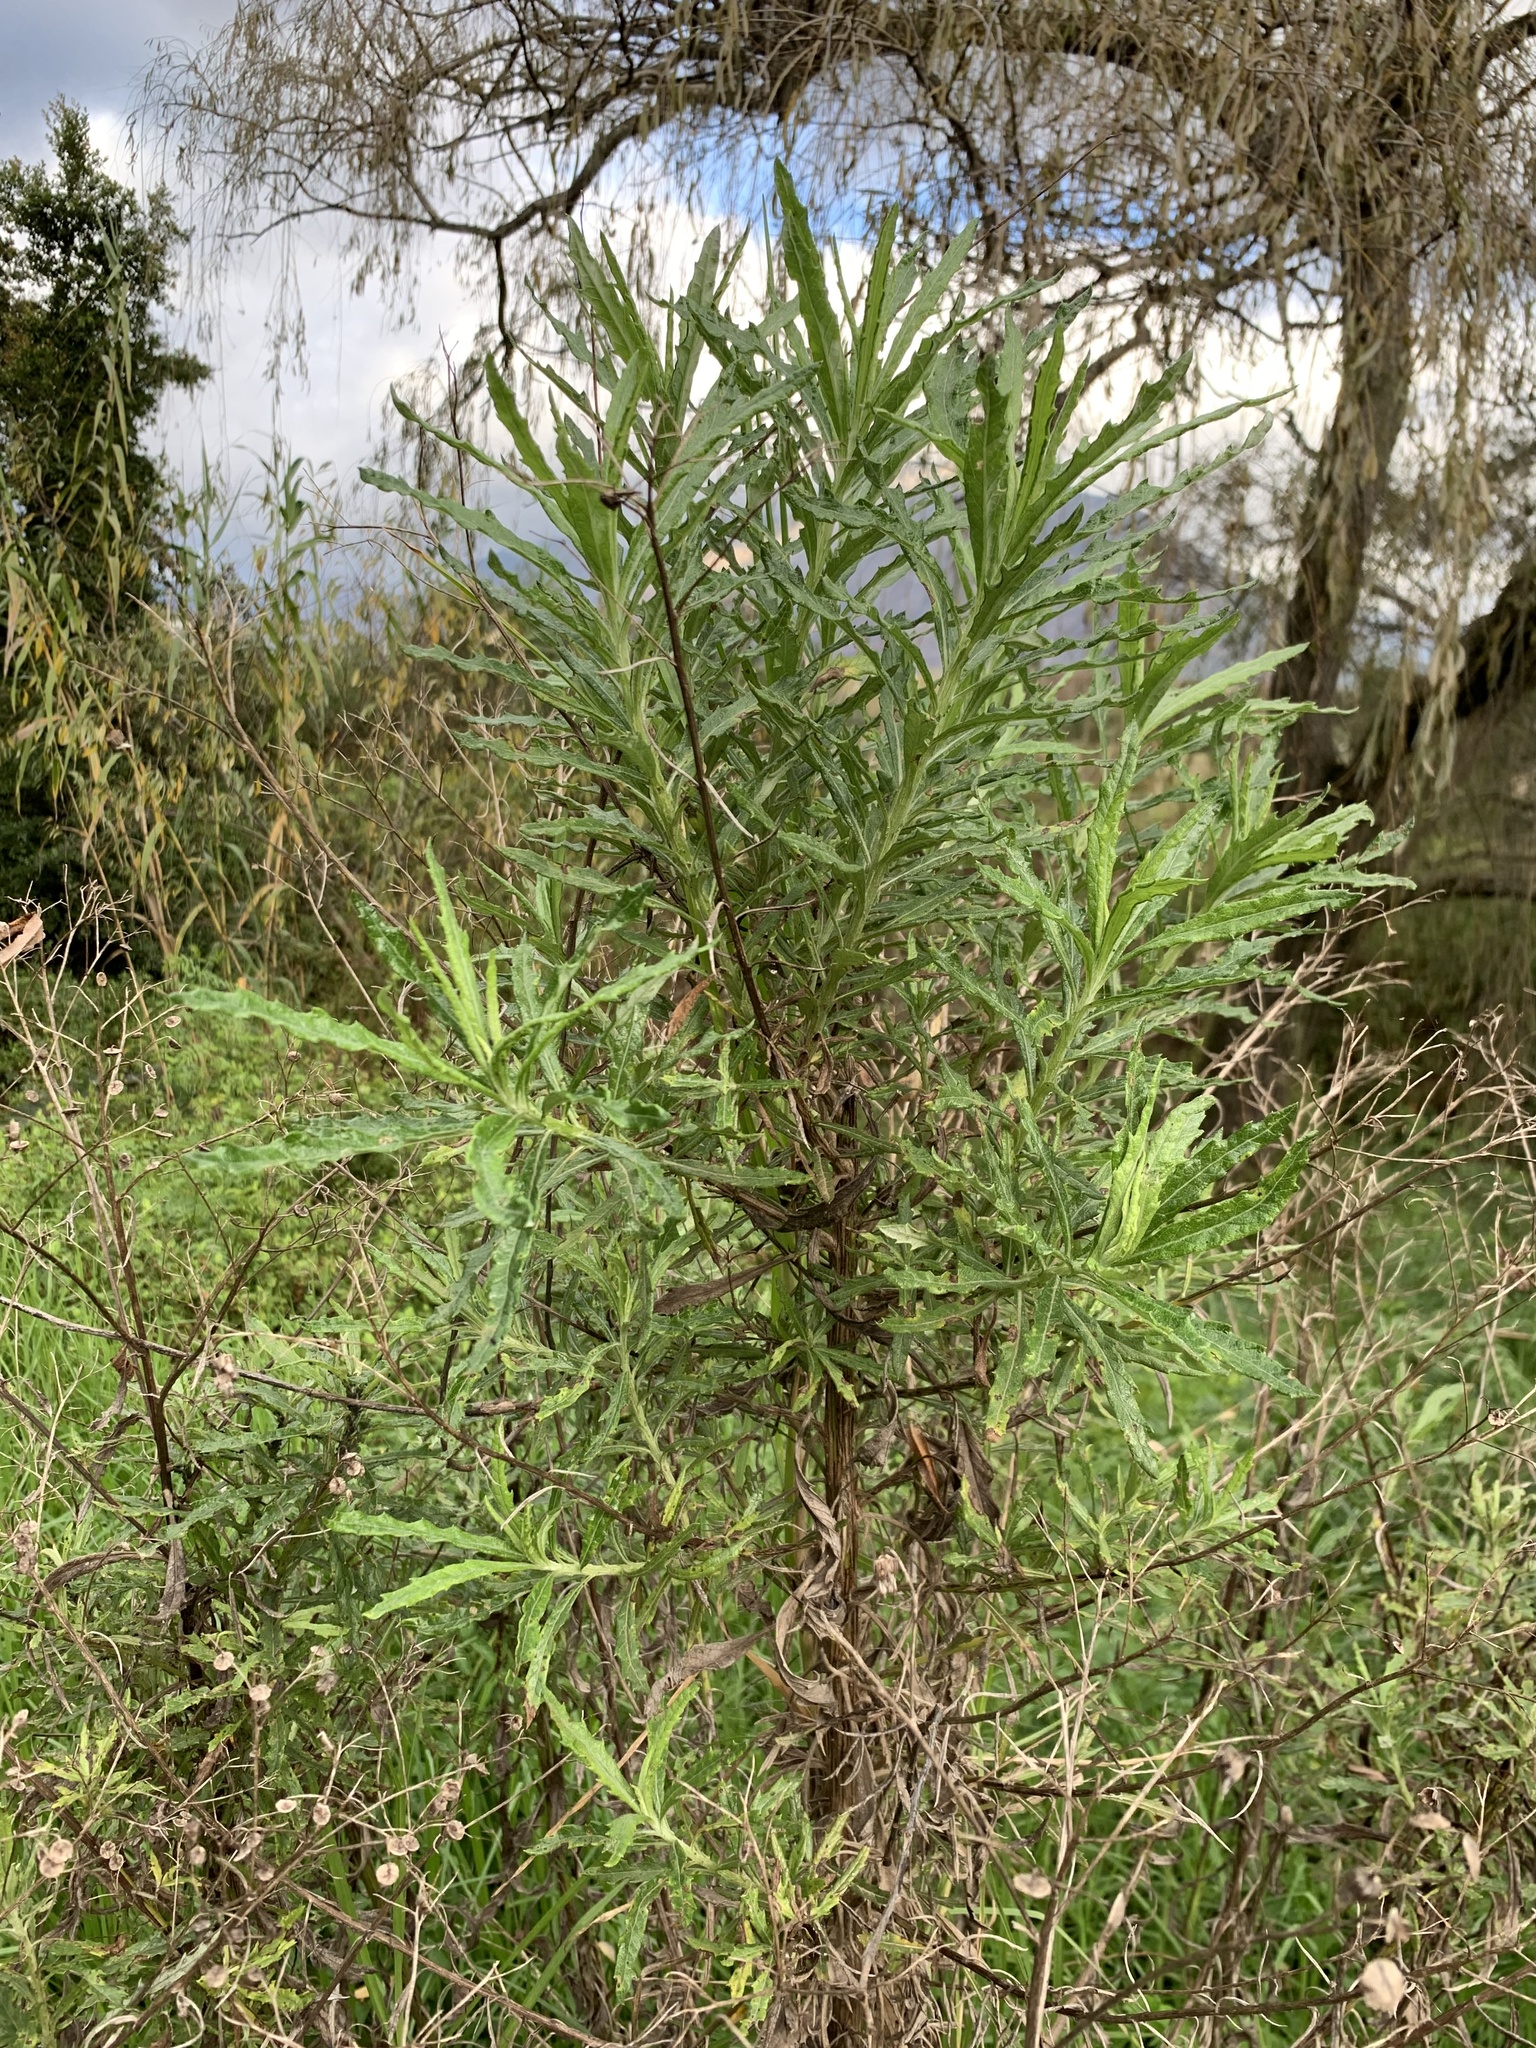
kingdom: Plantae
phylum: Tracheophyta
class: Magnoliopsida
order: Asterales
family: Asteraceae
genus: Senecio
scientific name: Senecio pterophorus
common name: Shoddy ragwort
